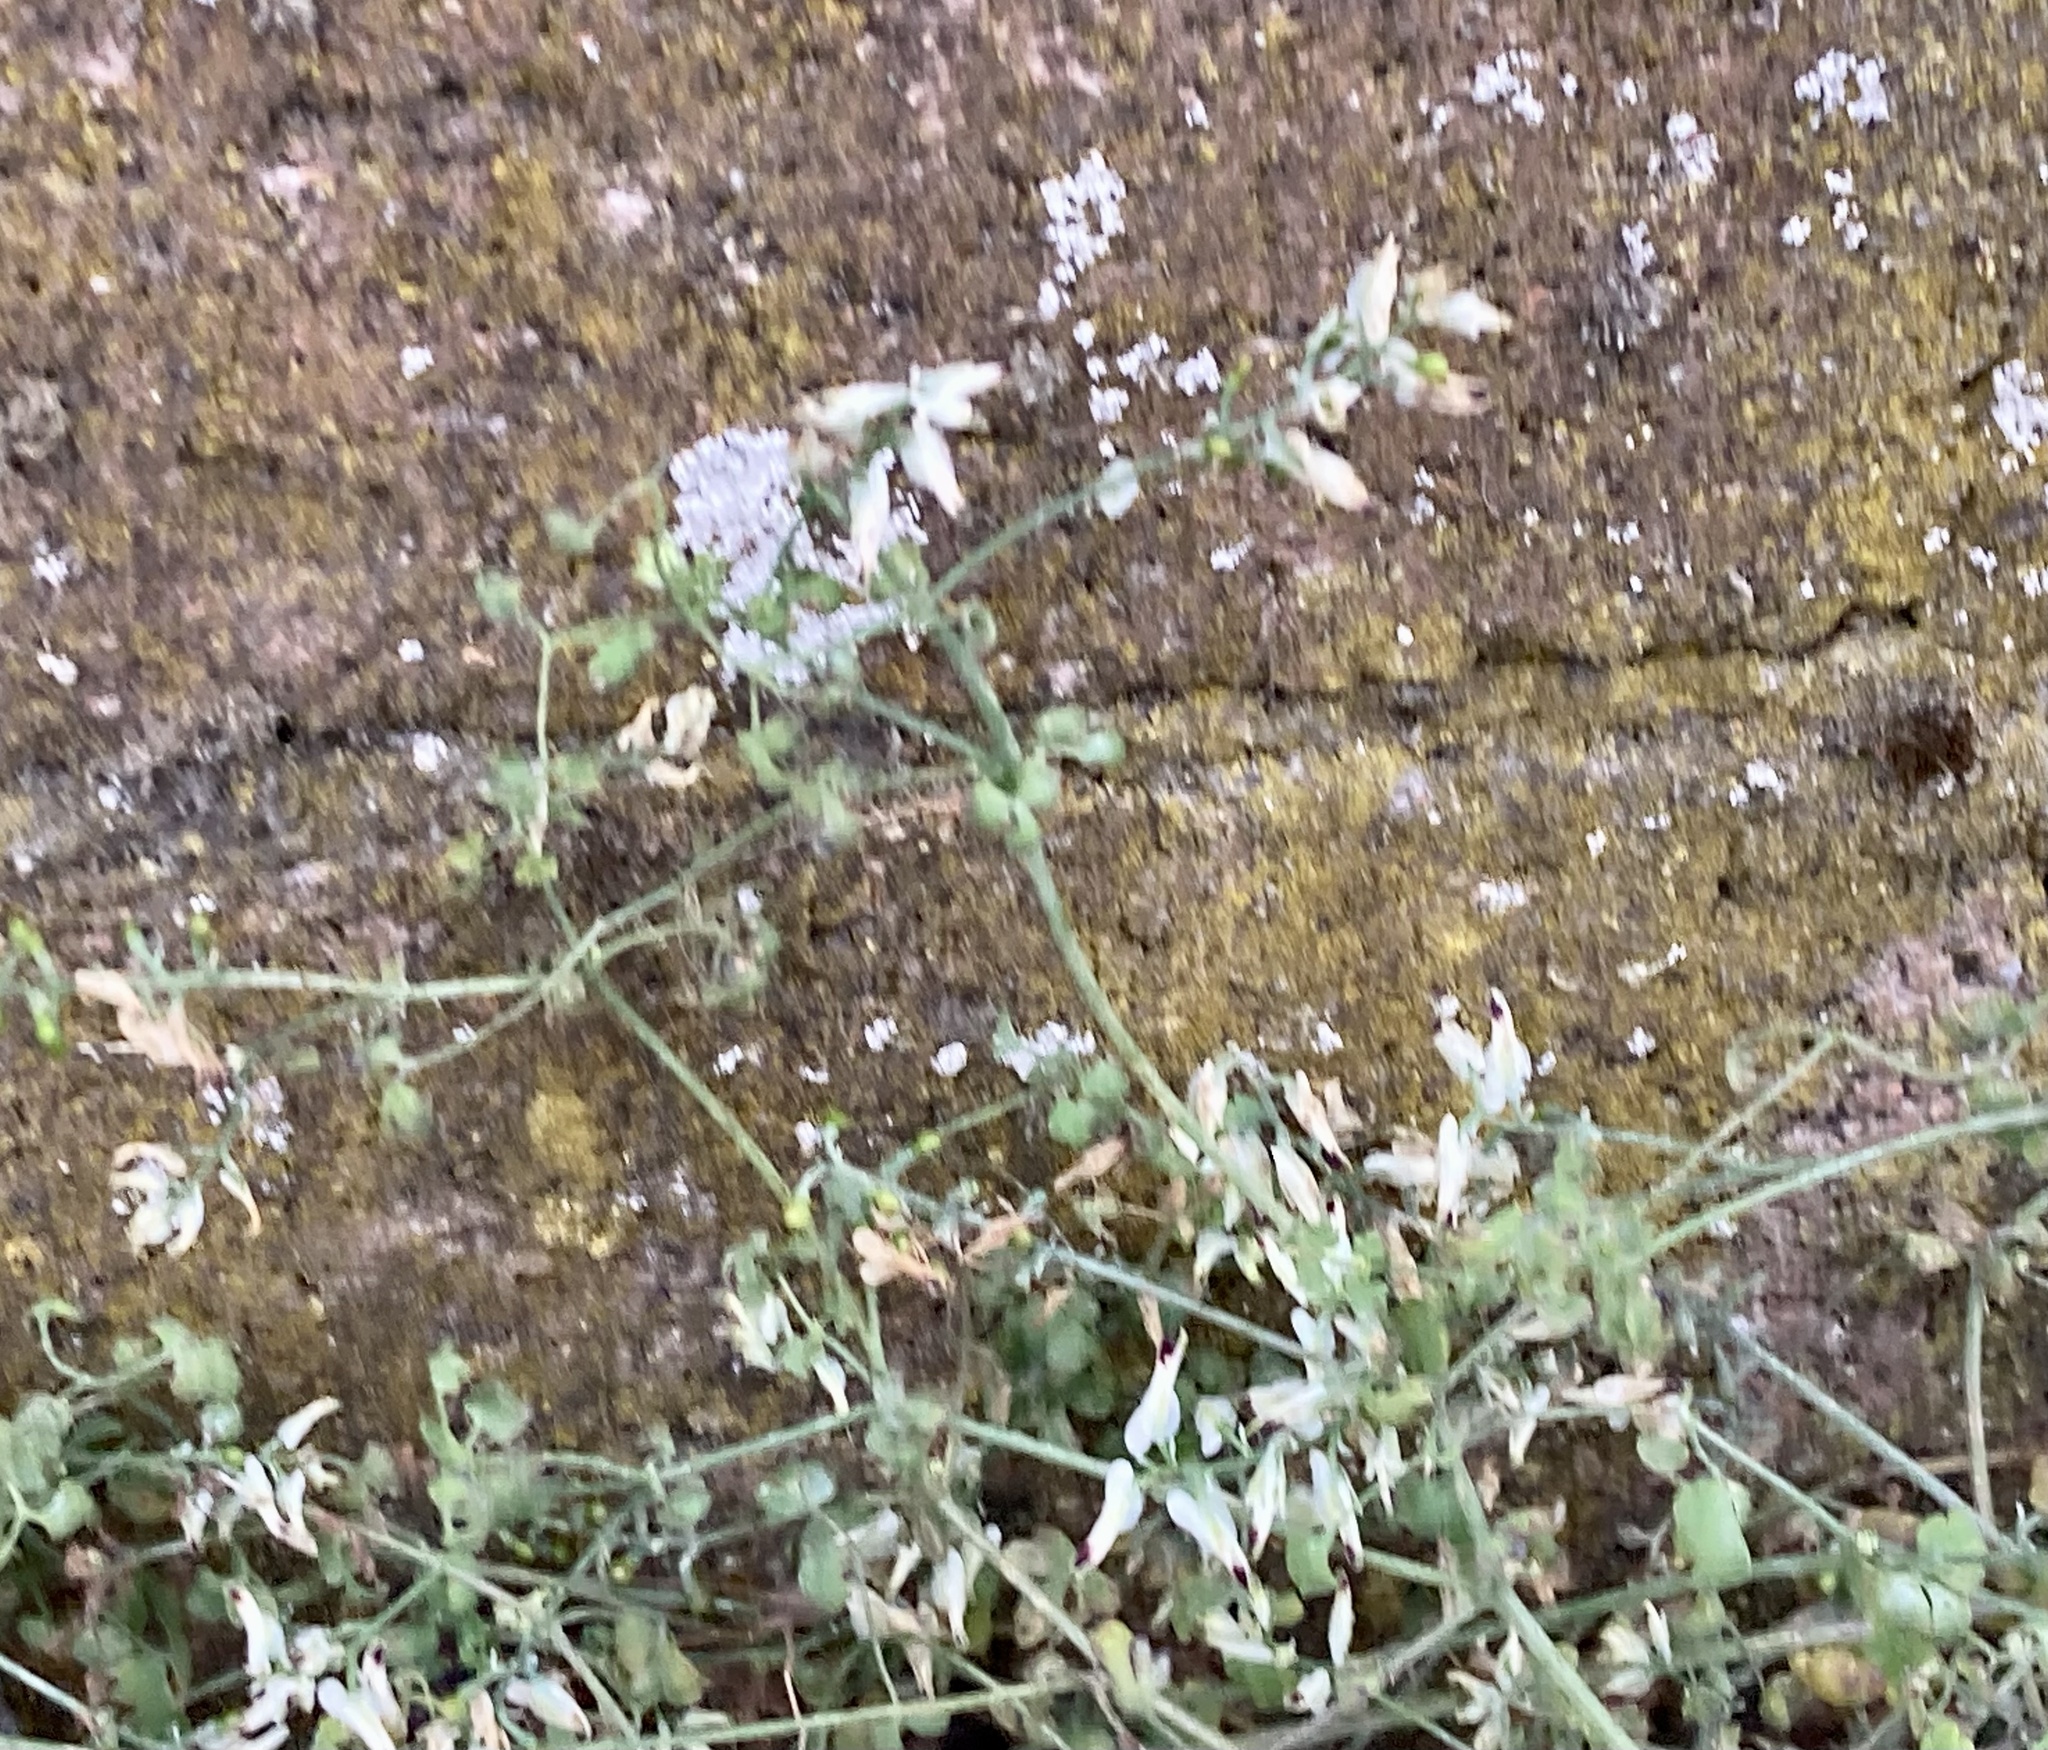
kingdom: Plantae
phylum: Tracheophyta
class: Magnoliopsida
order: Ranunculales
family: Papaveraceae
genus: Fumaria
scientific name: Fumaria capreolata
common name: White ramping-fumitory
